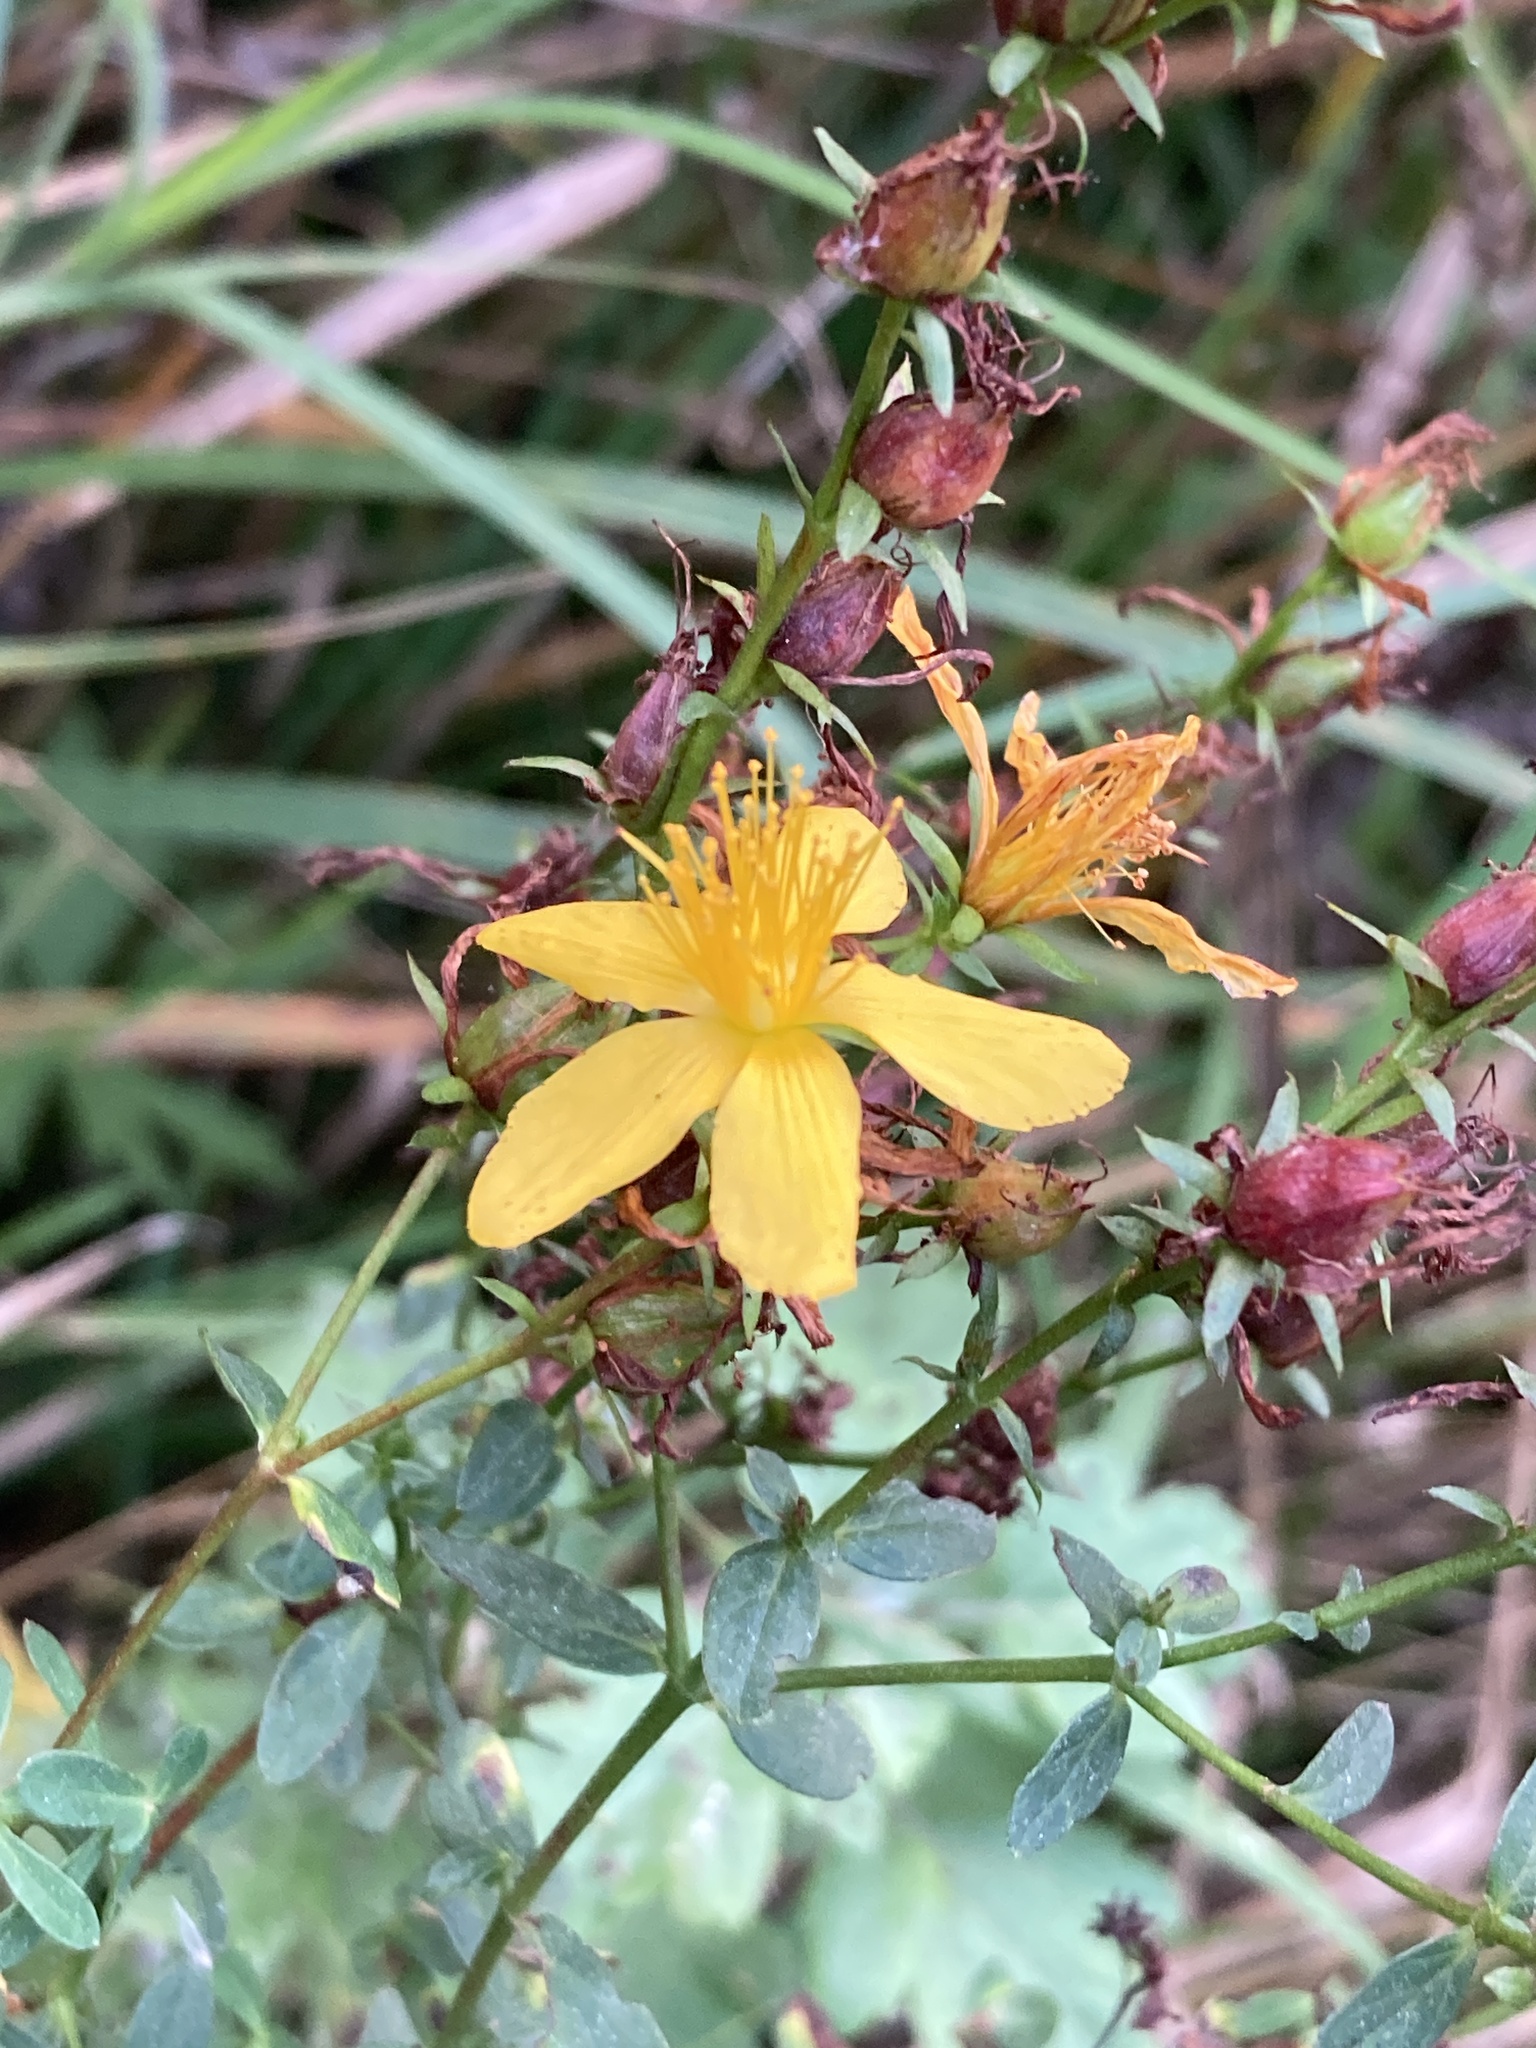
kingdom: Plantae
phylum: Tracheophyta
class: Magnoliopsida
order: Malpighiales
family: Hypericaceae
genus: Hypericum
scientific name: Hypericum perforatum
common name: Common st. johnswort
